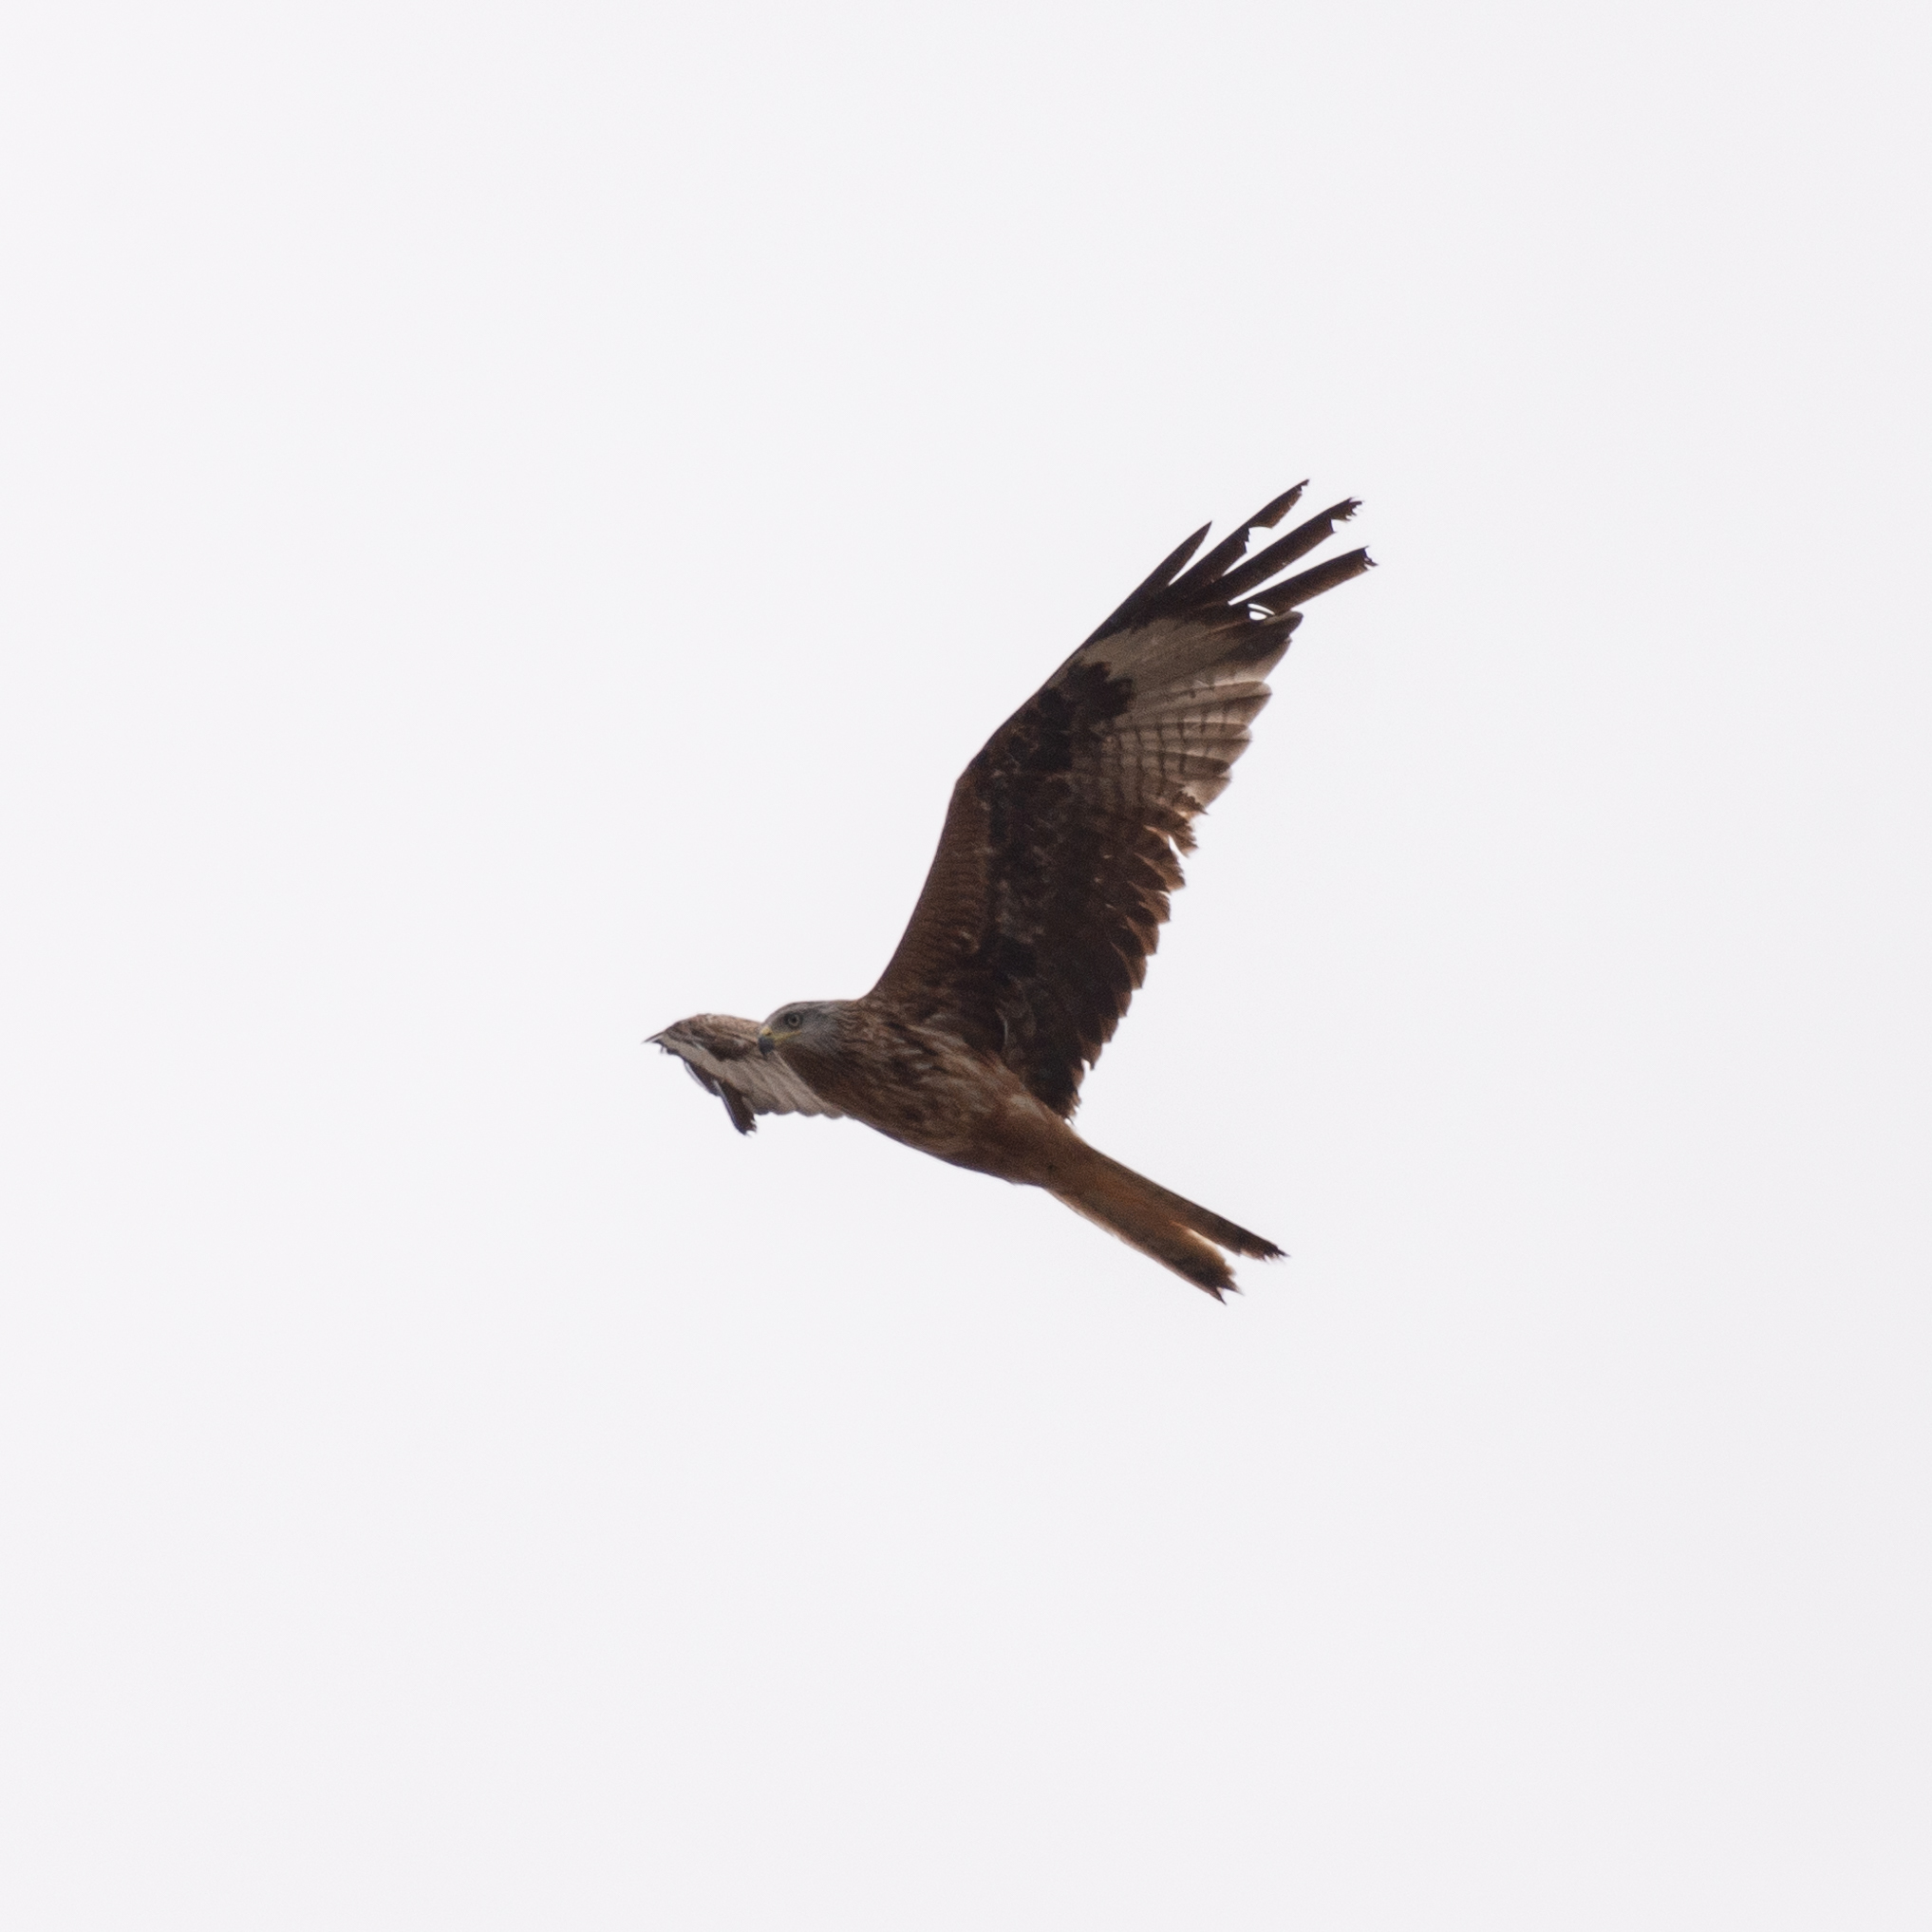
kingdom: Animalia
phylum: Chordata
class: Aves
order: Accipitriformes
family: Accipitridae
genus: Milvus
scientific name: Milvus milvus
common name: Red kite
